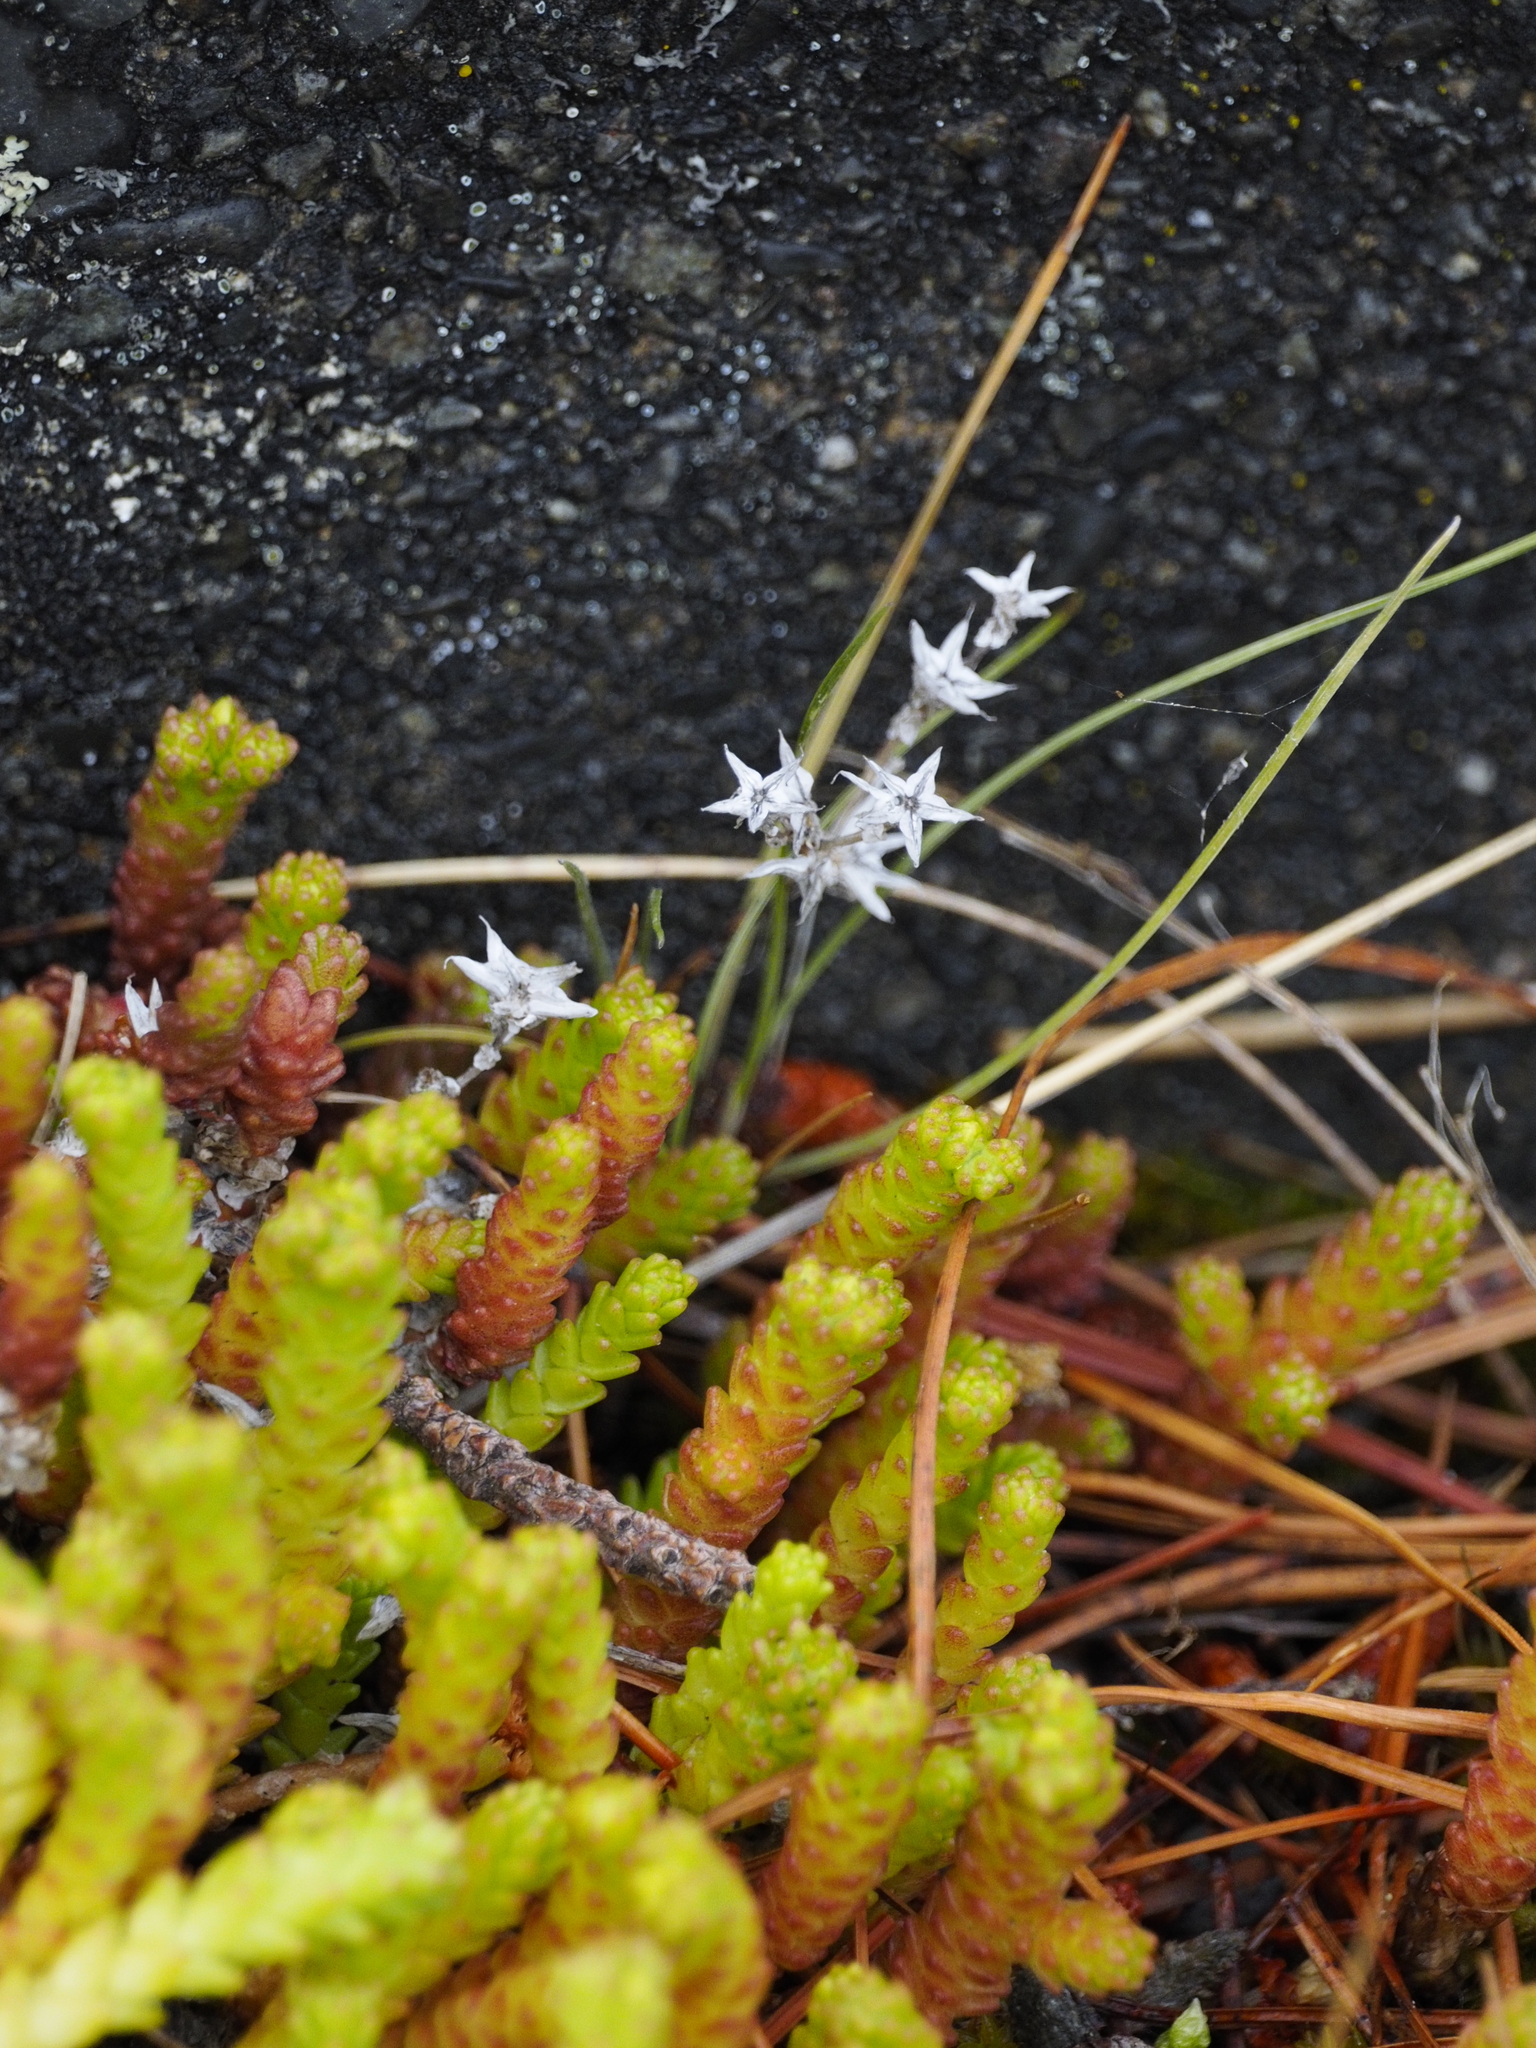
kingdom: Plantae
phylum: Tracheophyta
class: Magnoliopsida
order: Saxifragales
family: Crassulaceae
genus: Sedum
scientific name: Sedum acre
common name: Biting stonecrop
